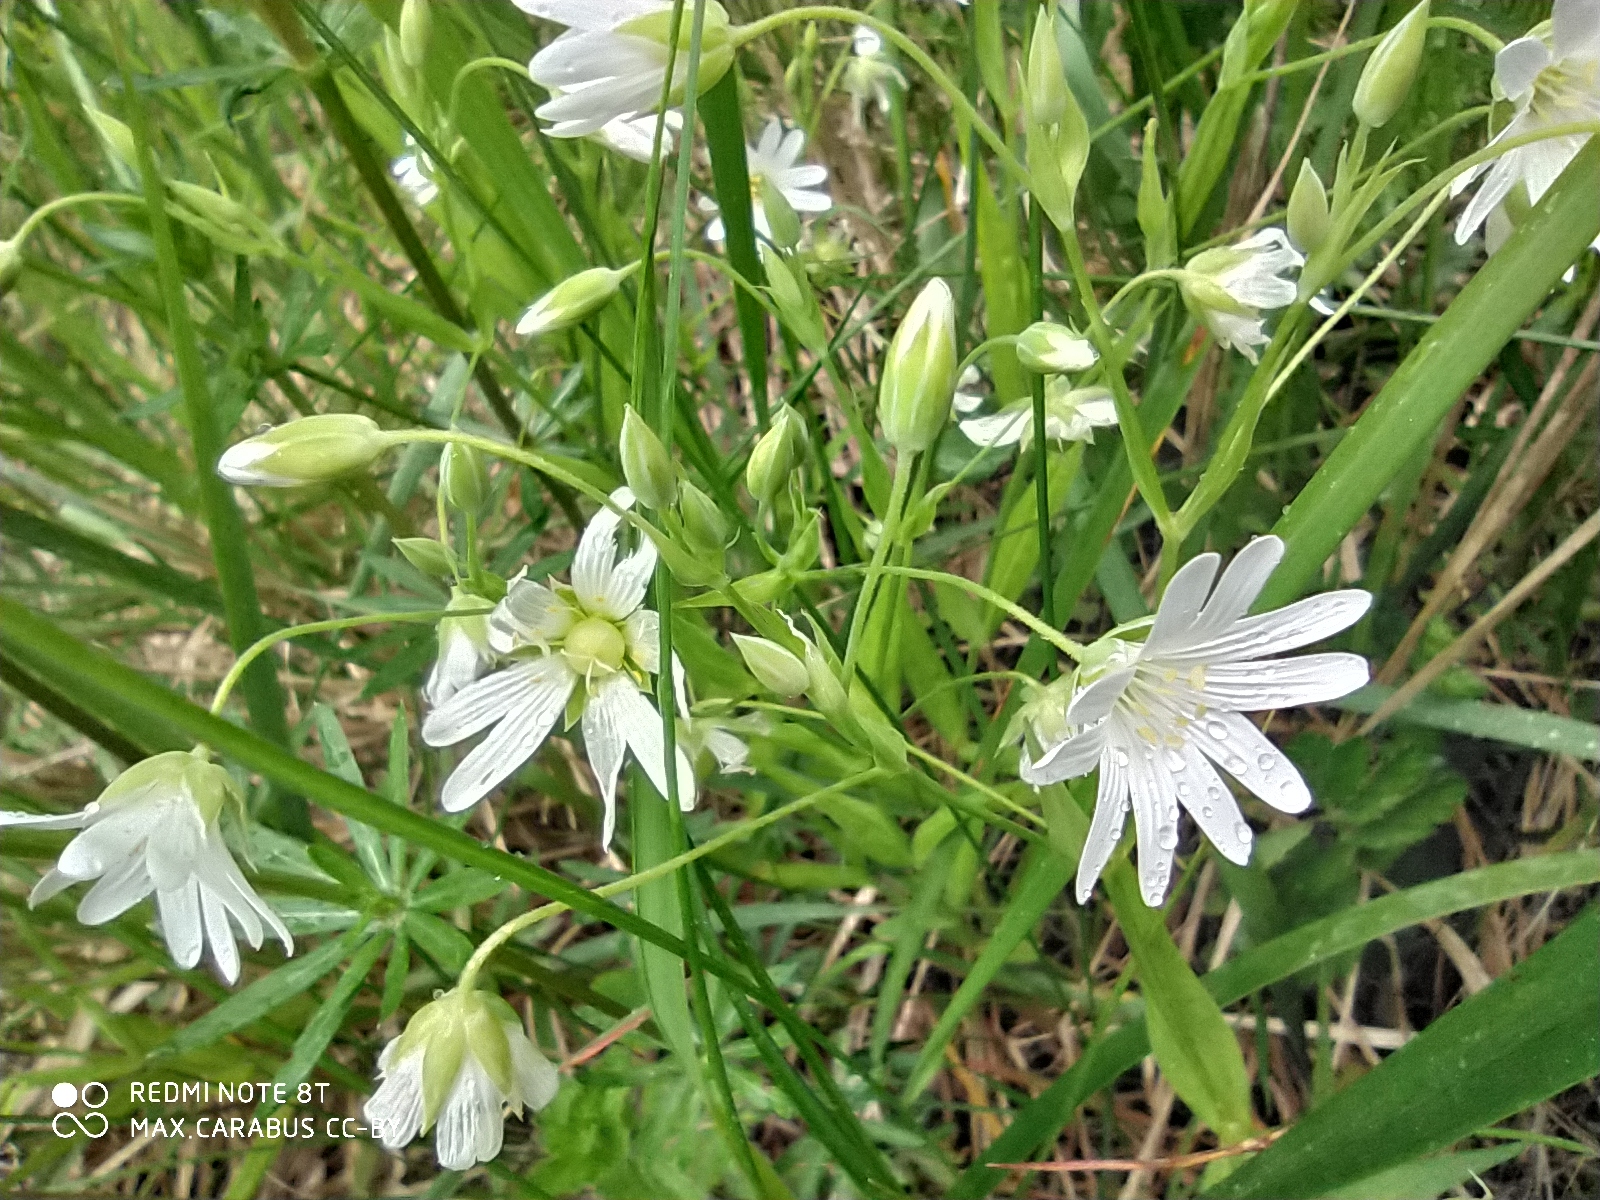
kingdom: Plantae
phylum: Tracheophyta
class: Magnoliopsida
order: Caryophyllales
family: Caryophyllaceae
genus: Rabelera
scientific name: Rabelera holostea
